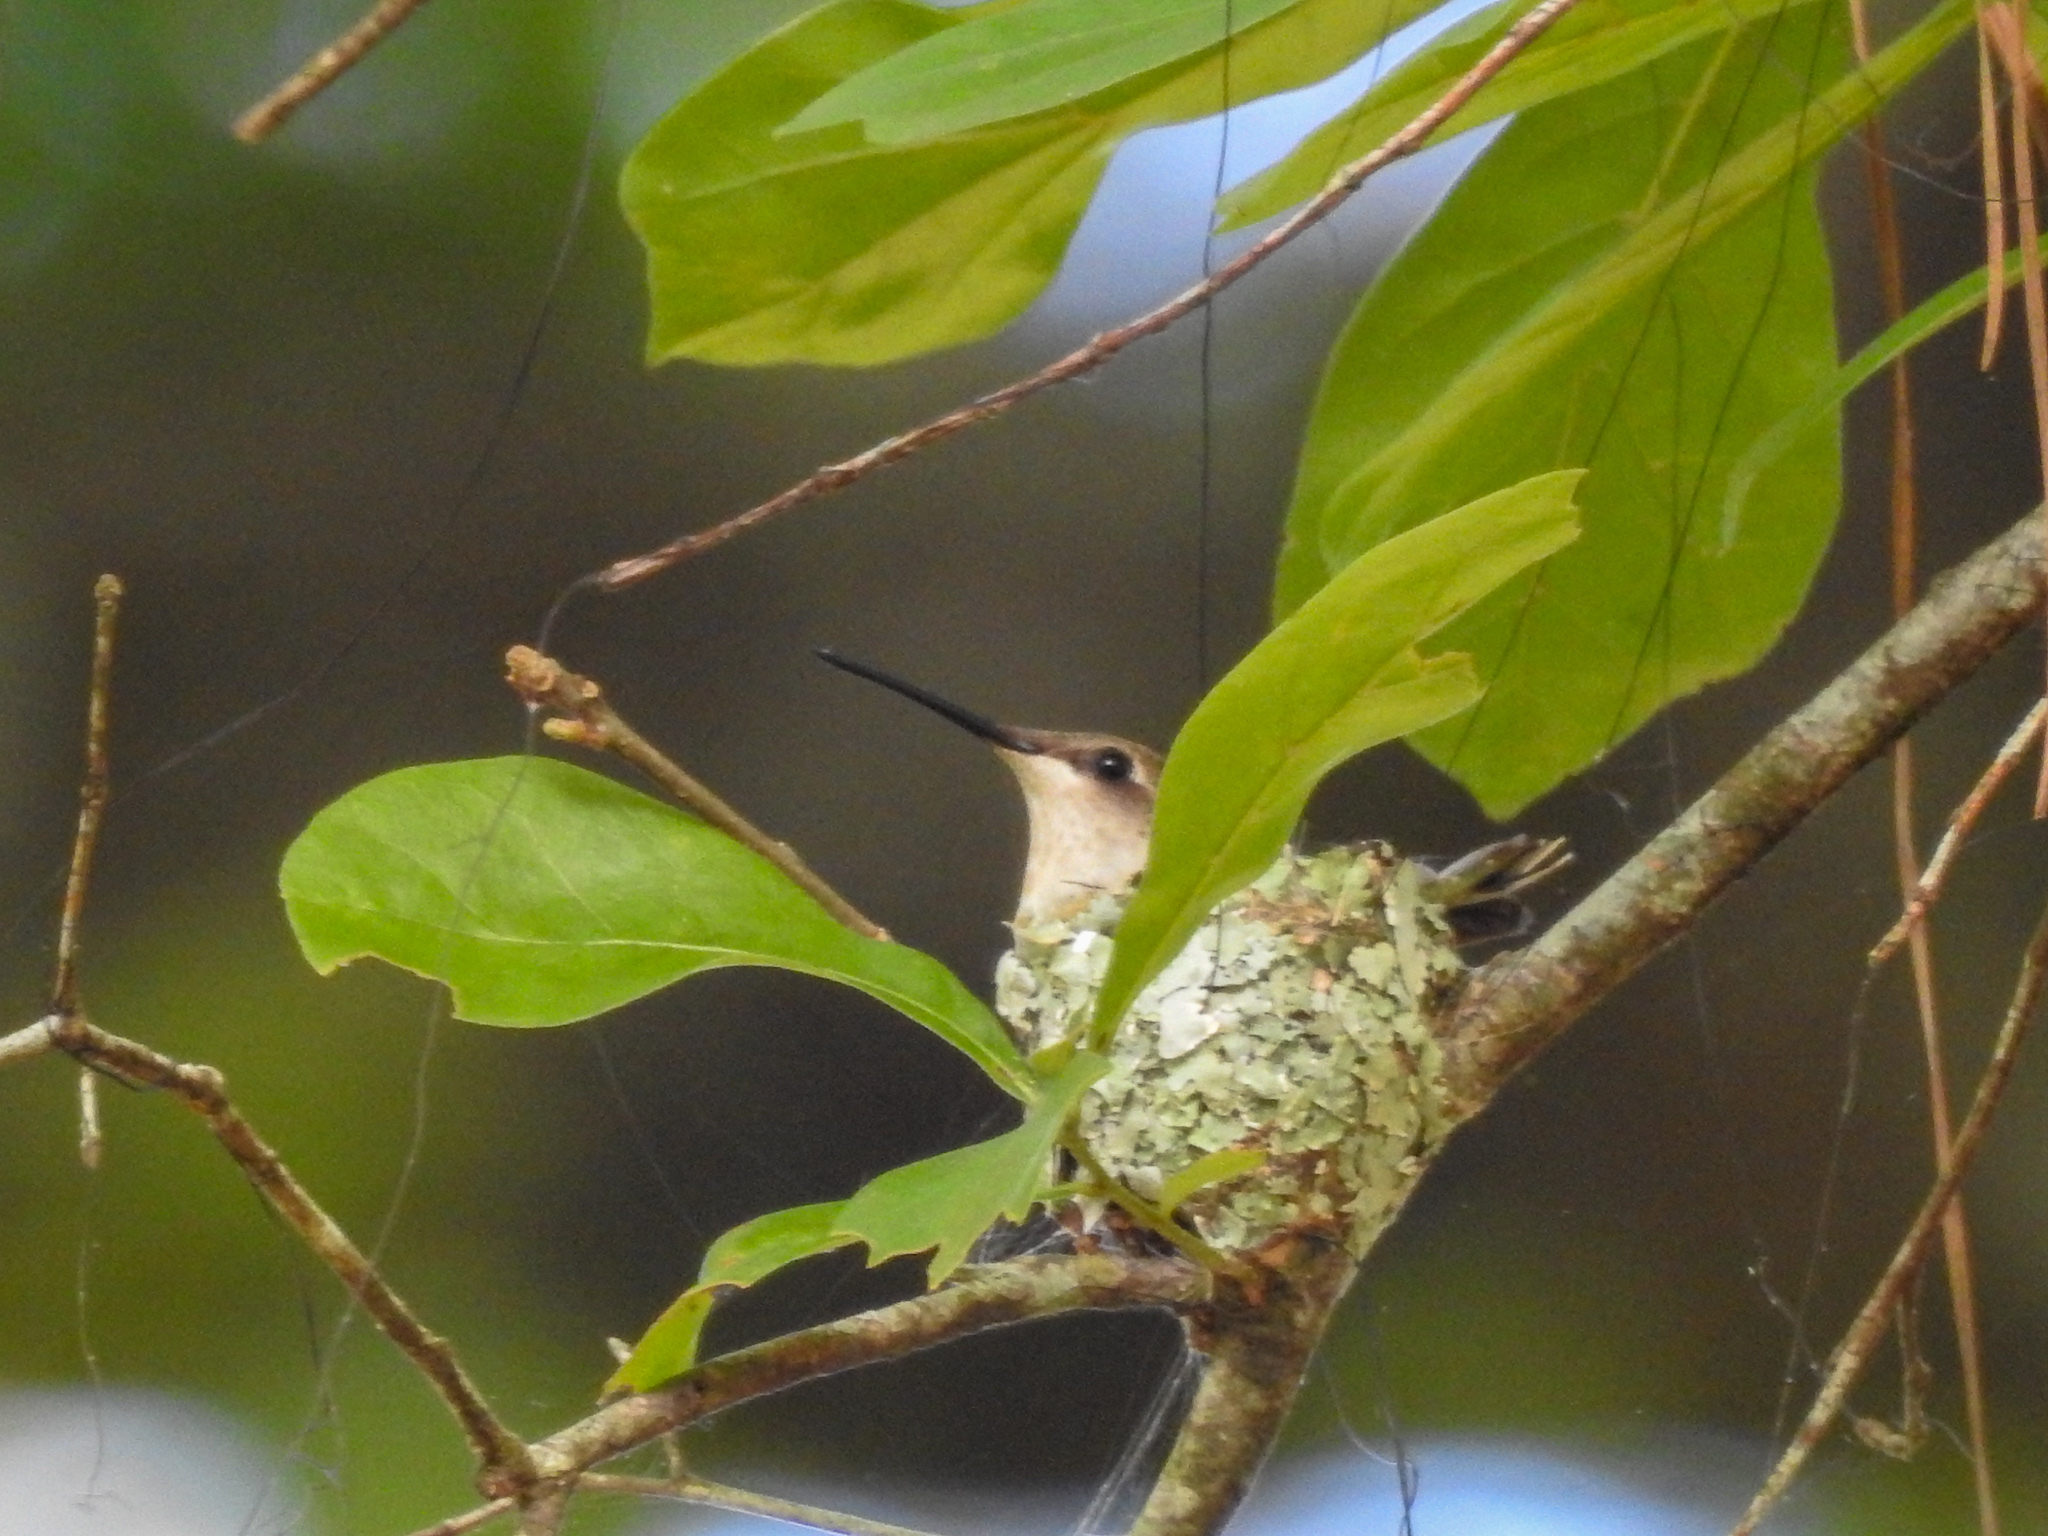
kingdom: Animalia
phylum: Chordata
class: Aves
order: Apodiformes
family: Trochilidae
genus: Archilochus
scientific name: Archilochus colubris
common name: Ruby-throated hummingbird
